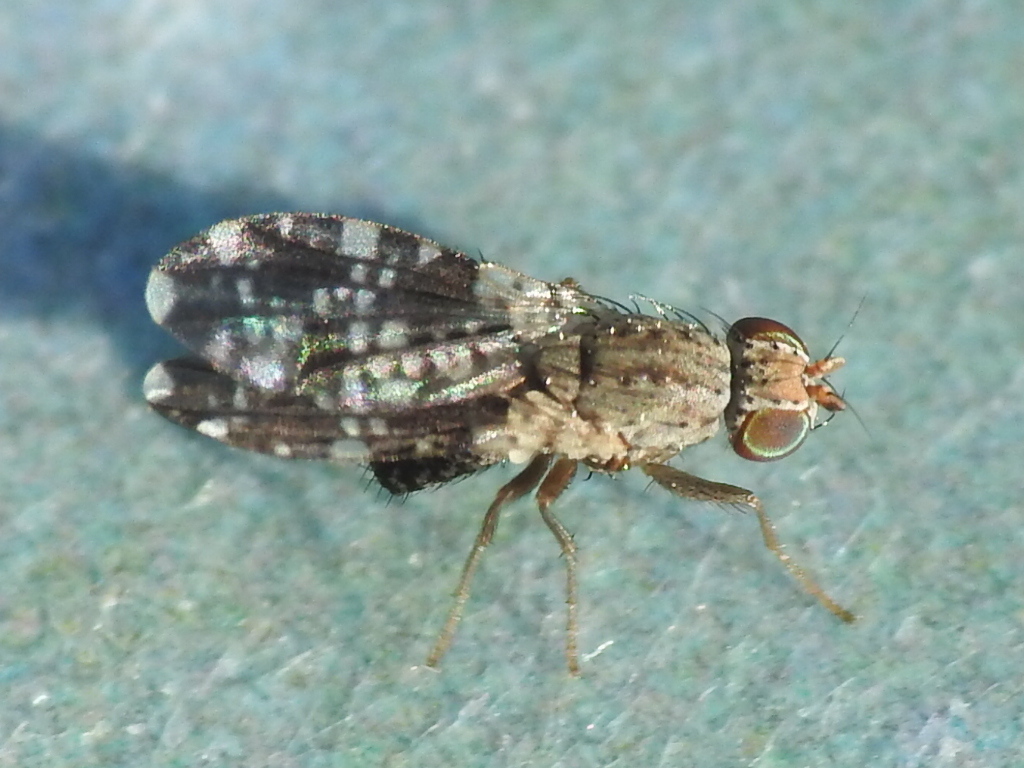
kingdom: Animalia
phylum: Arthropoda
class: Insecta
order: Diptera
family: Heleomyzidae
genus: Trixoscelis
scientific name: Trixoscelis ornata
